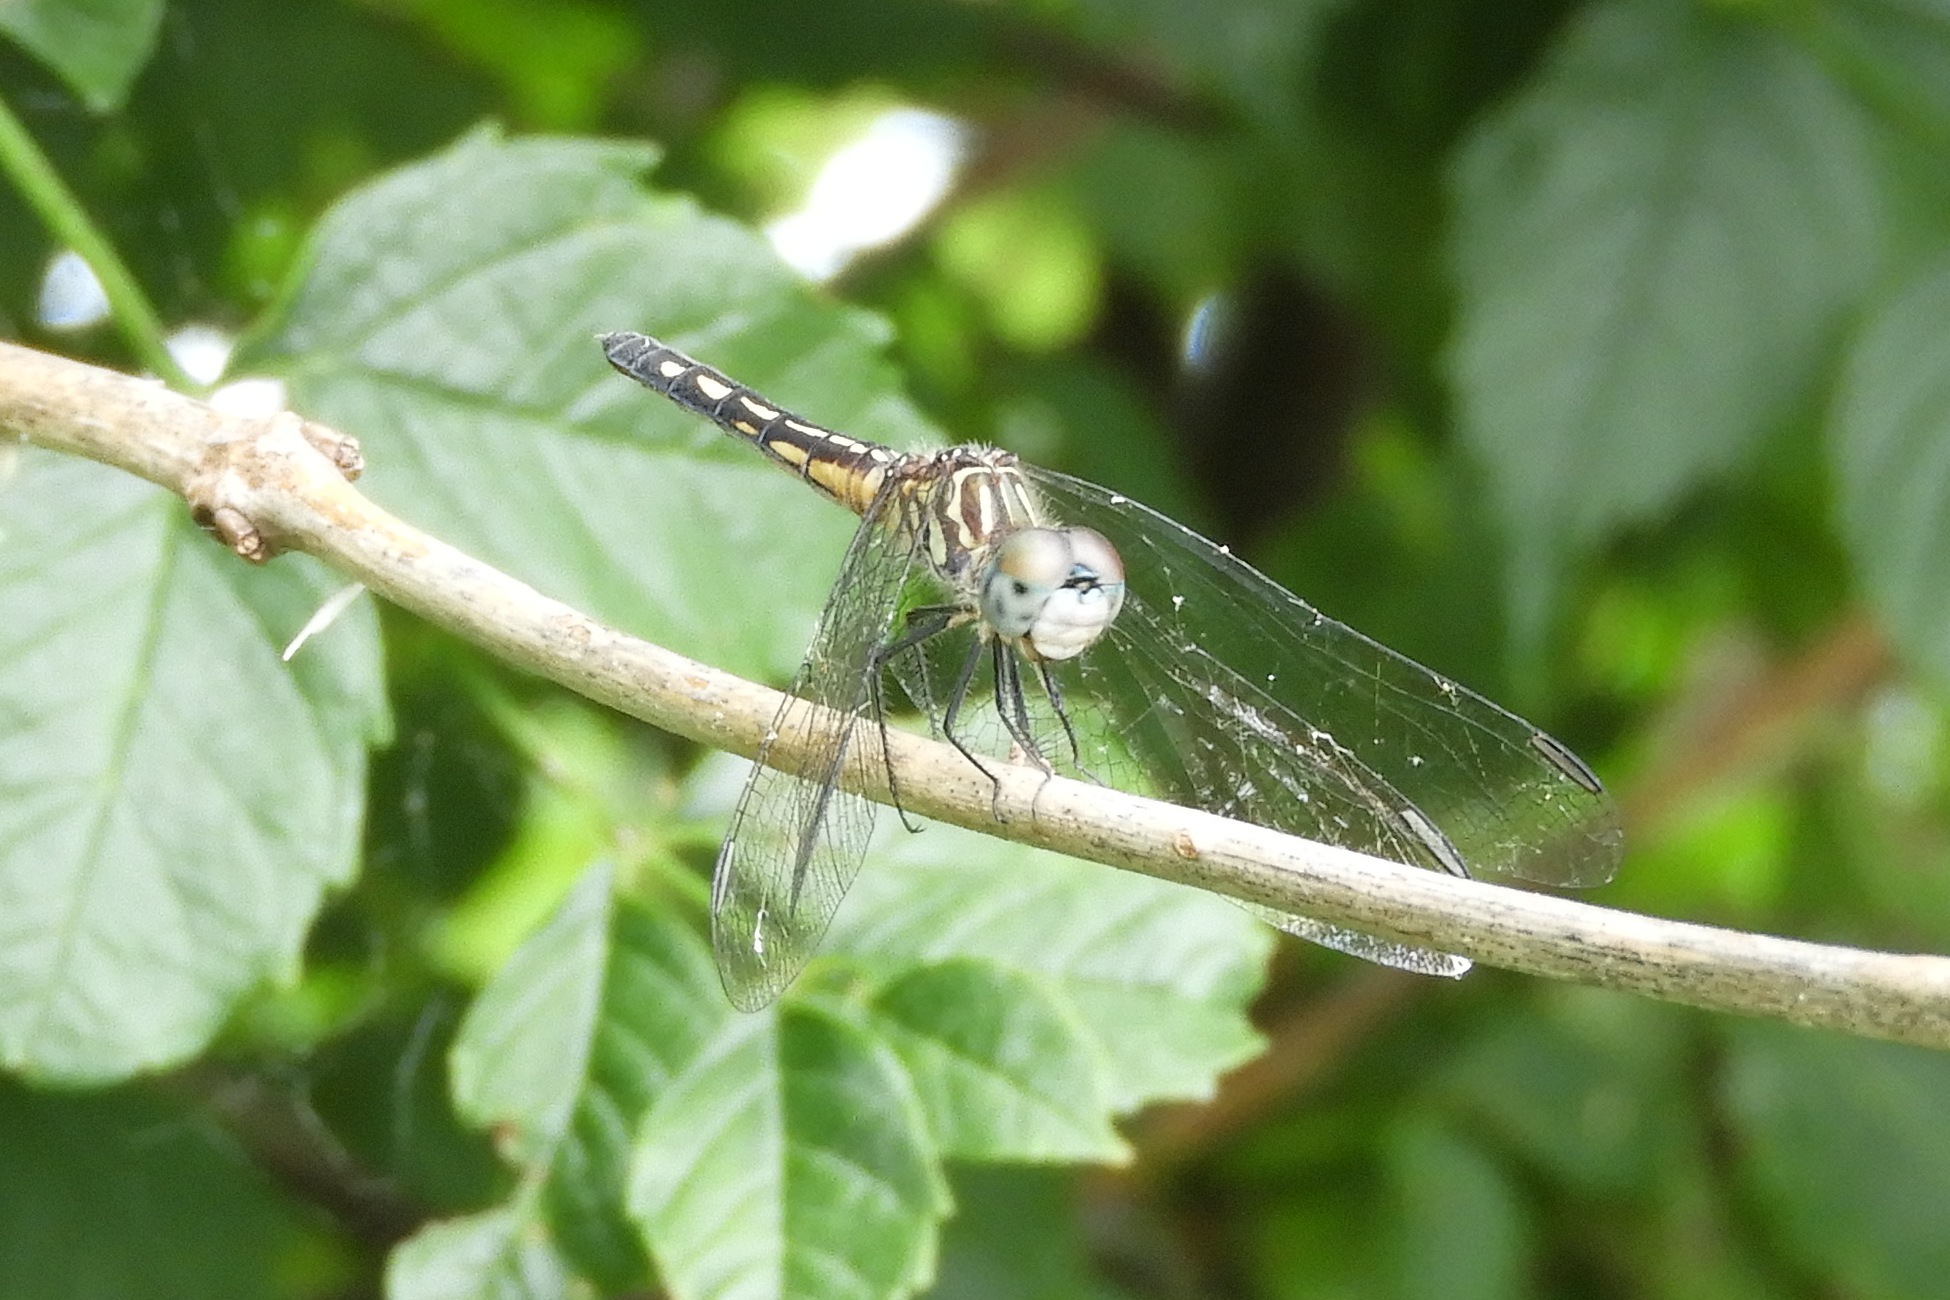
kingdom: Animalia
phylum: Arthropoda
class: Insecta
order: Odonata
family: Libellulidae
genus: Pachydiplax
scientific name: Pachydiplax longipennis
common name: Blue dasher
